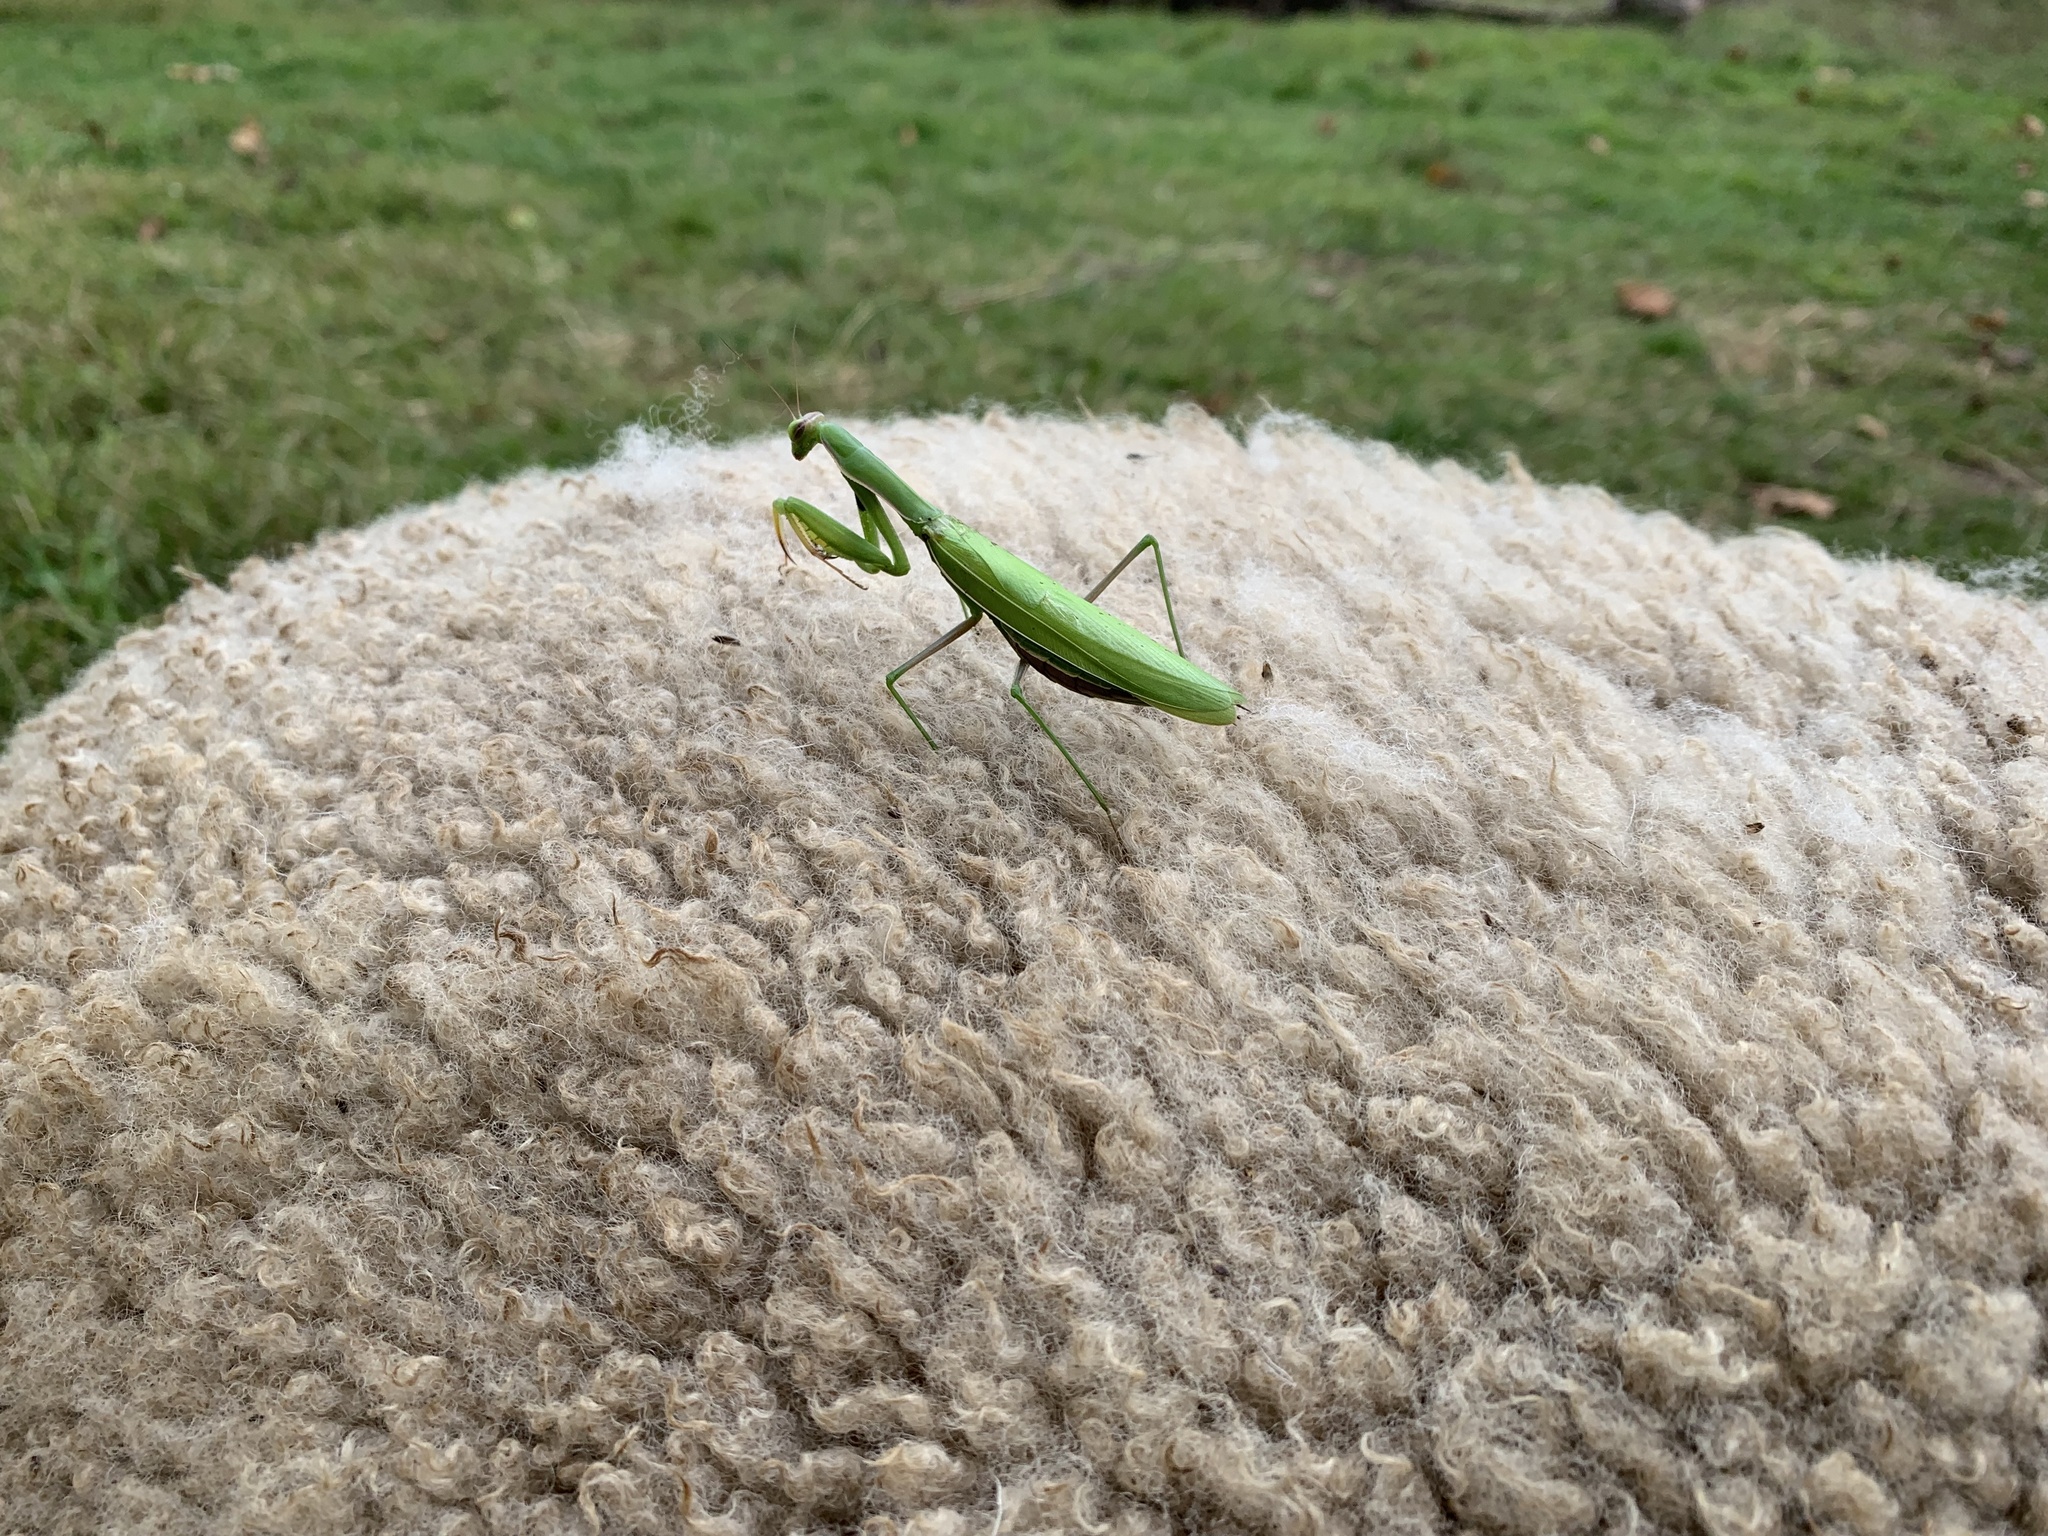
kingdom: Animalia
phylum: Arthropoda
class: Insecta
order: Mantodea
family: Mantidae
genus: Mantis
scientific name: Mantis religiosa
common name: Praying mantis
